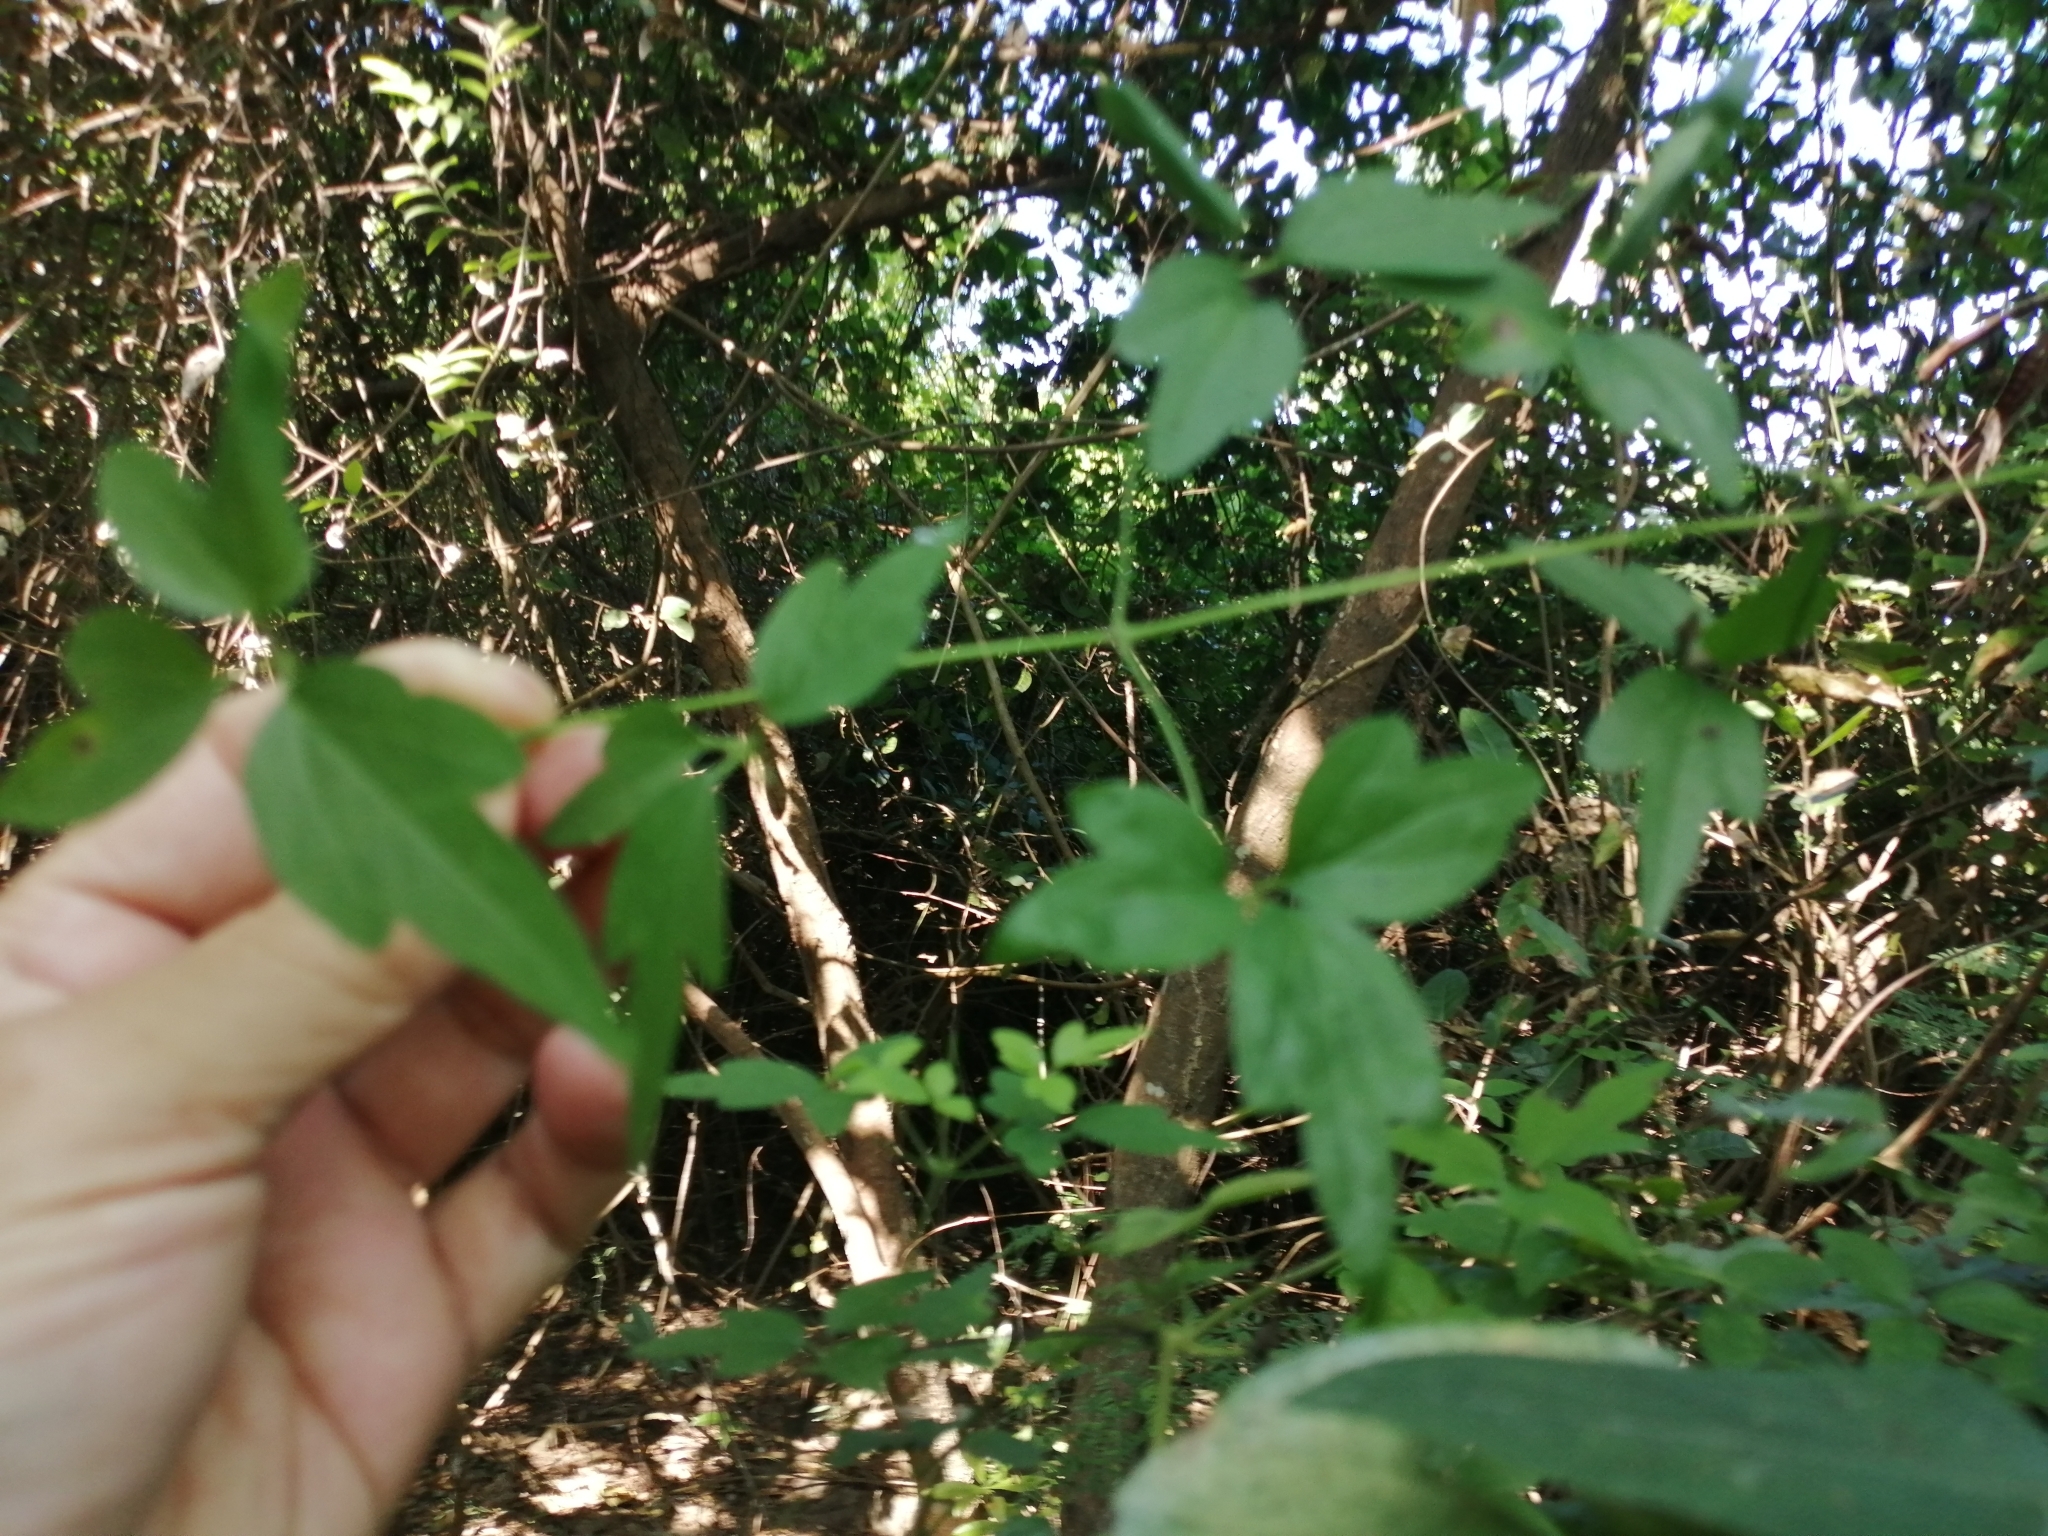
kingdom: Plantae
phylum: Tracheophyta
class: Magnoliopsida
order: Ranunculales
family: Ranunculaceae
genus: Clematis
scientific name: Clematis formosana
